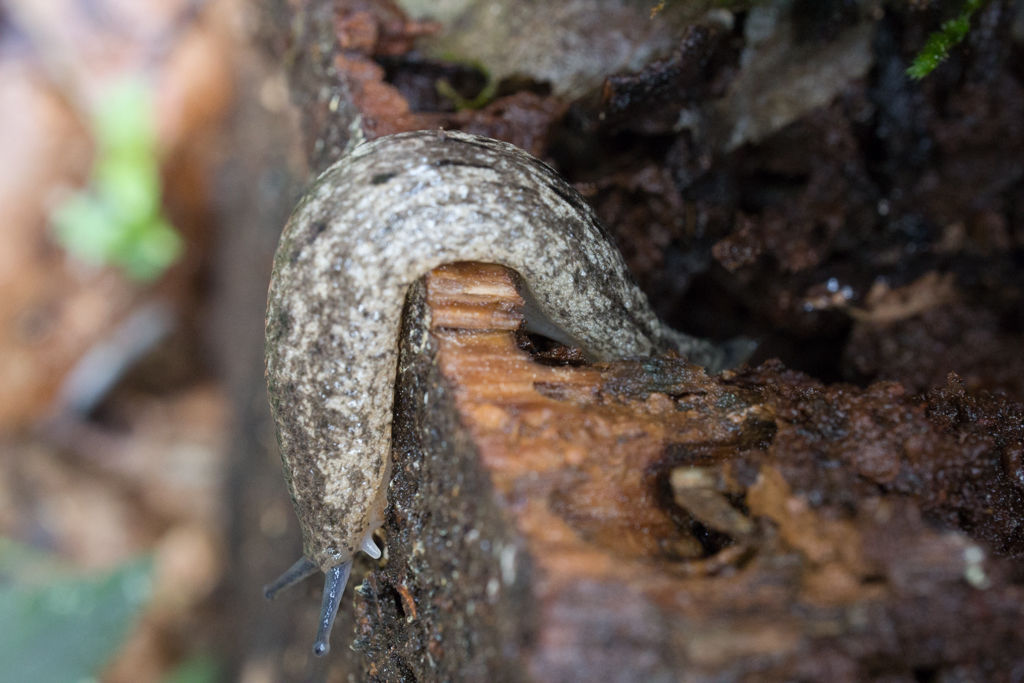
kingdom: Animalia
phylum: Mollusca
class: Gastropoda
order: Stylommatophora
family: Philomycidae
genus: Philomycus
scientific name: Philomycus carolinianus
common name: Carolina mantleslug
